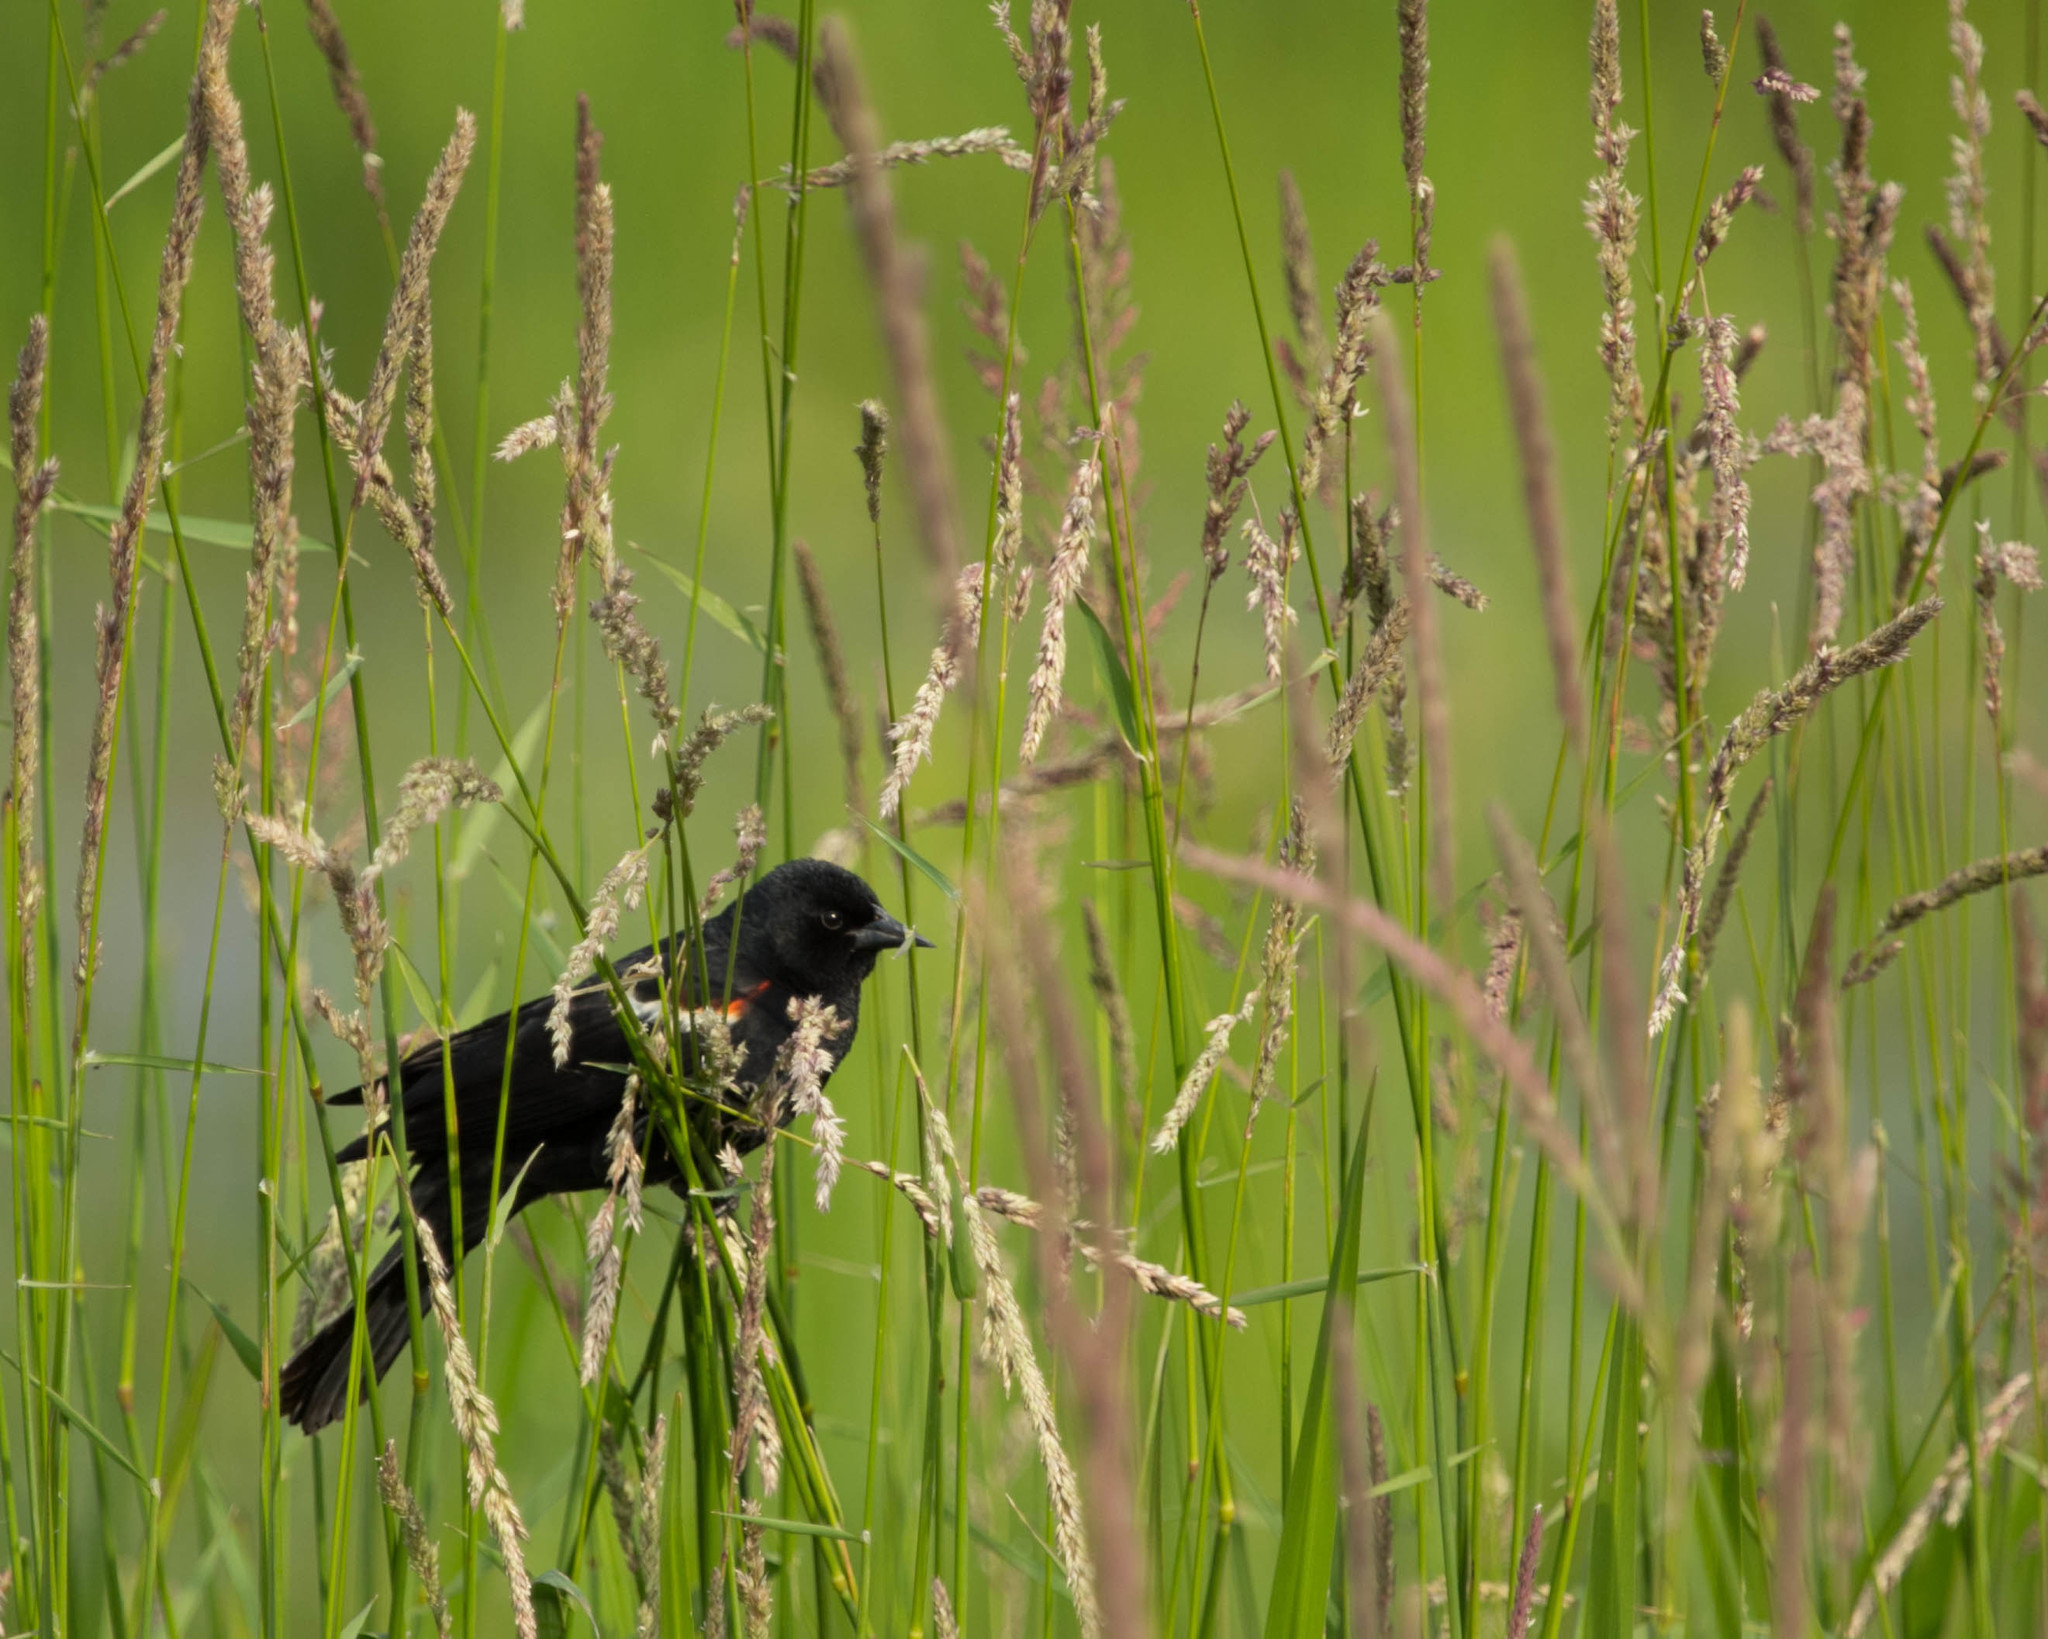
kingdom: Animalia
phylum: Chordata
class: Aves
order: Passeriformes
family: Icteridae
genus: Agelaius
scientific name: Agelaius phoeniceus
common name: Red-winged blackbird
